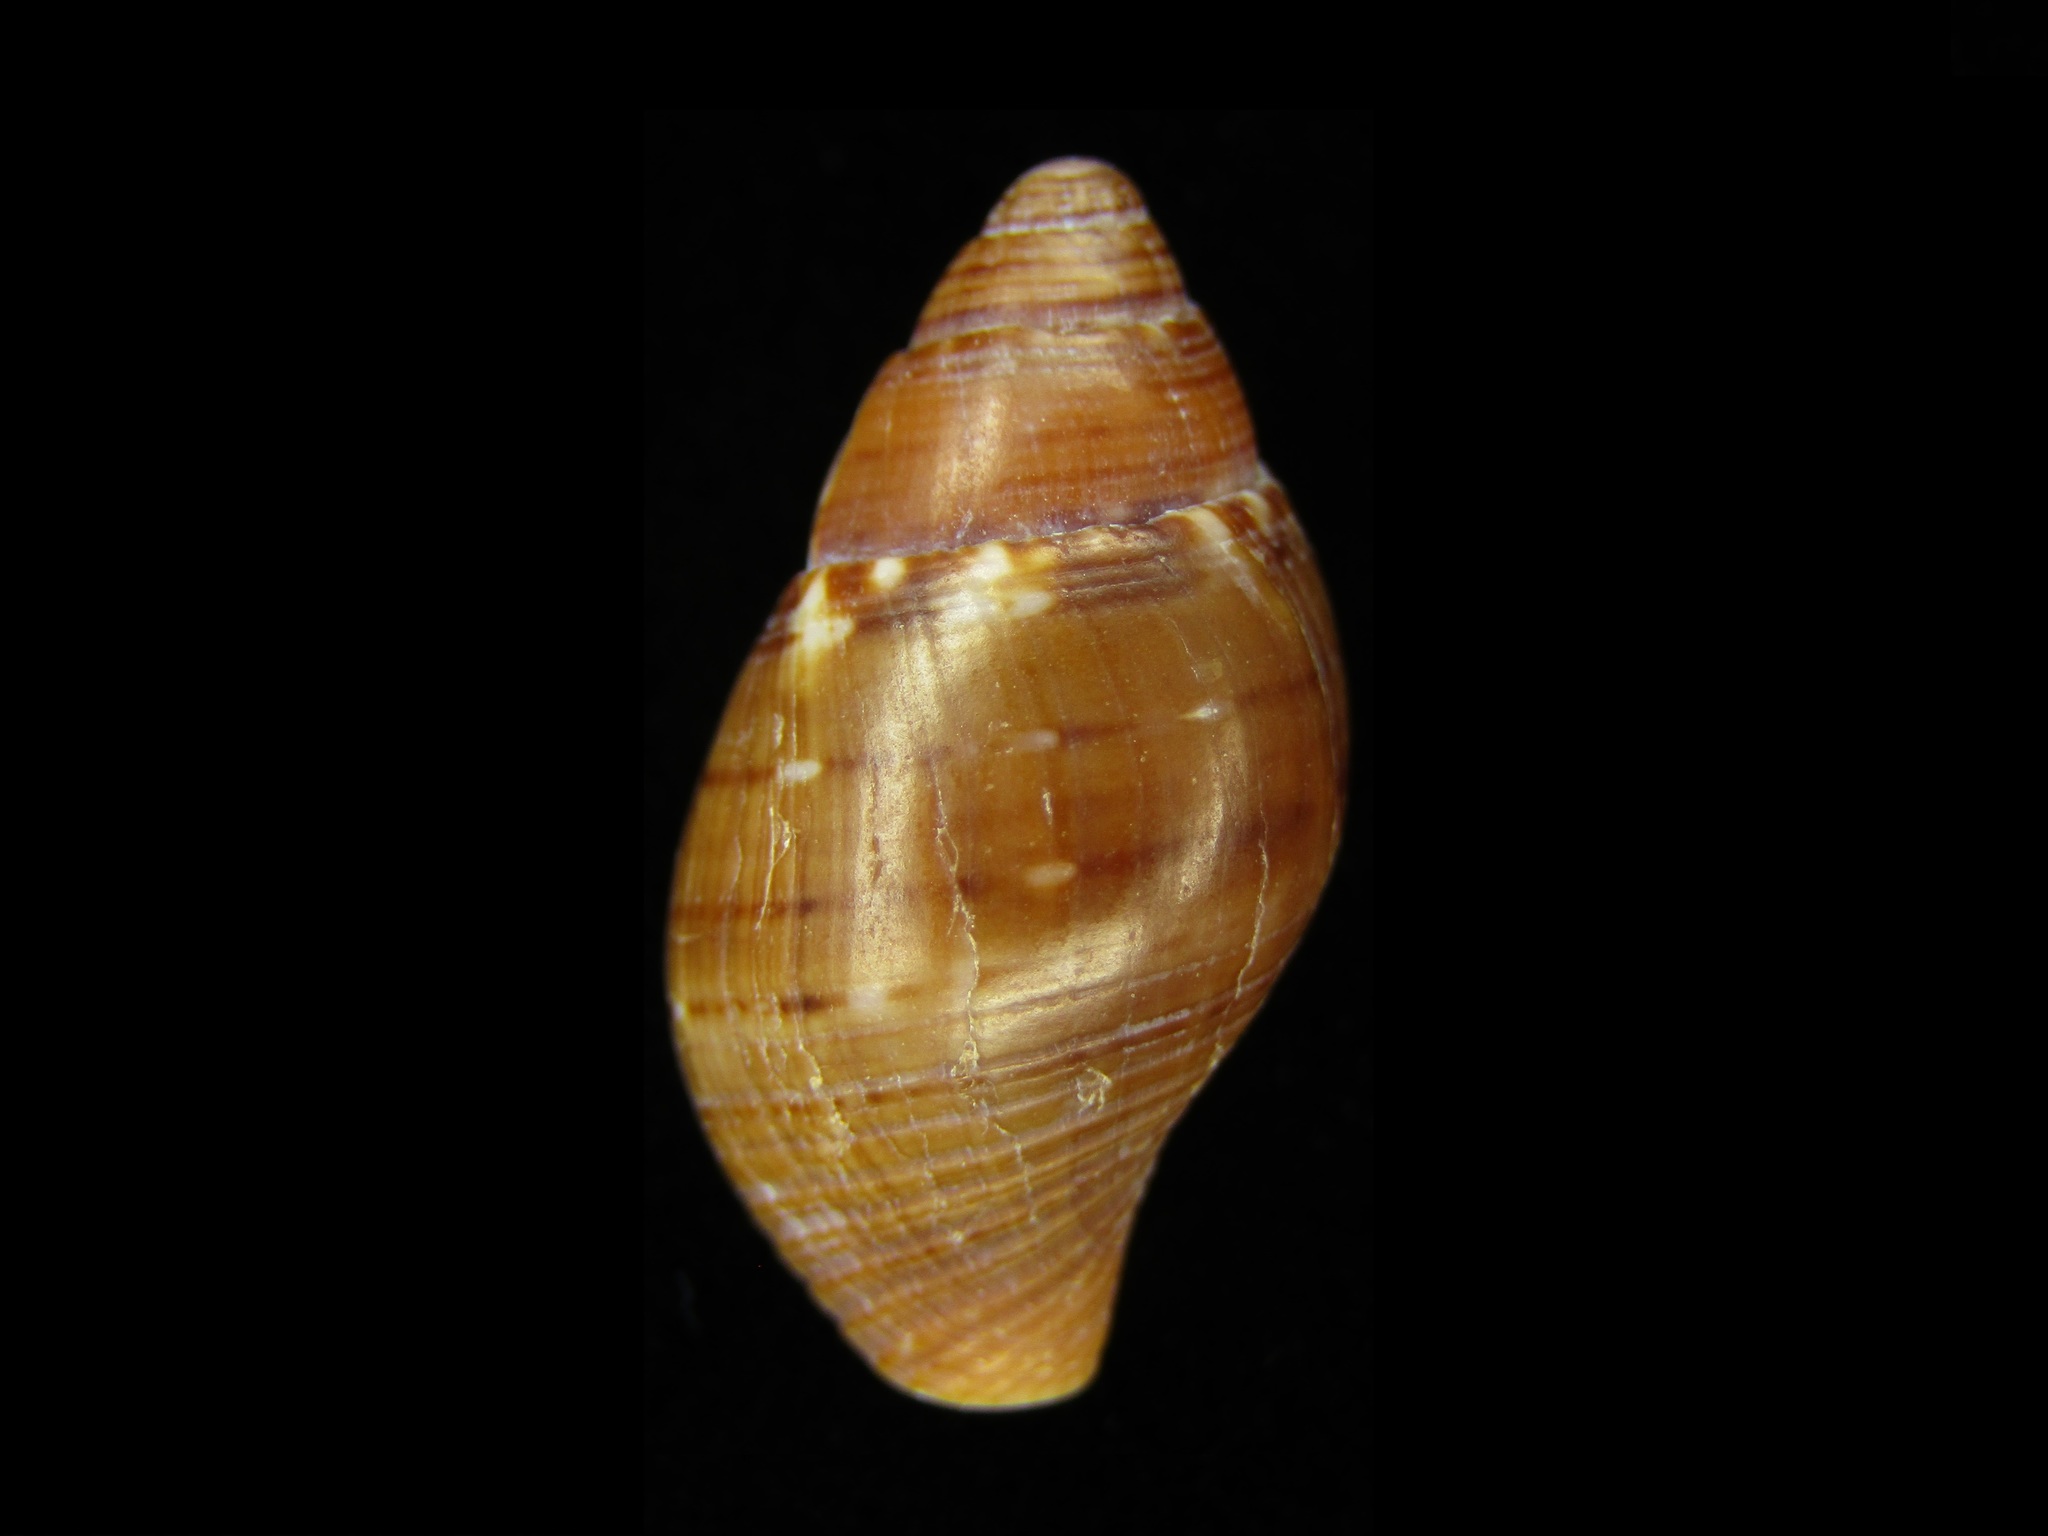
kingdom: Animalia
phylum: Mollusca
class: Gastropoda
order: Neogastropoda
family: Pisaniidae
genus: Pisania
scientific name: Pisania tritonoides
